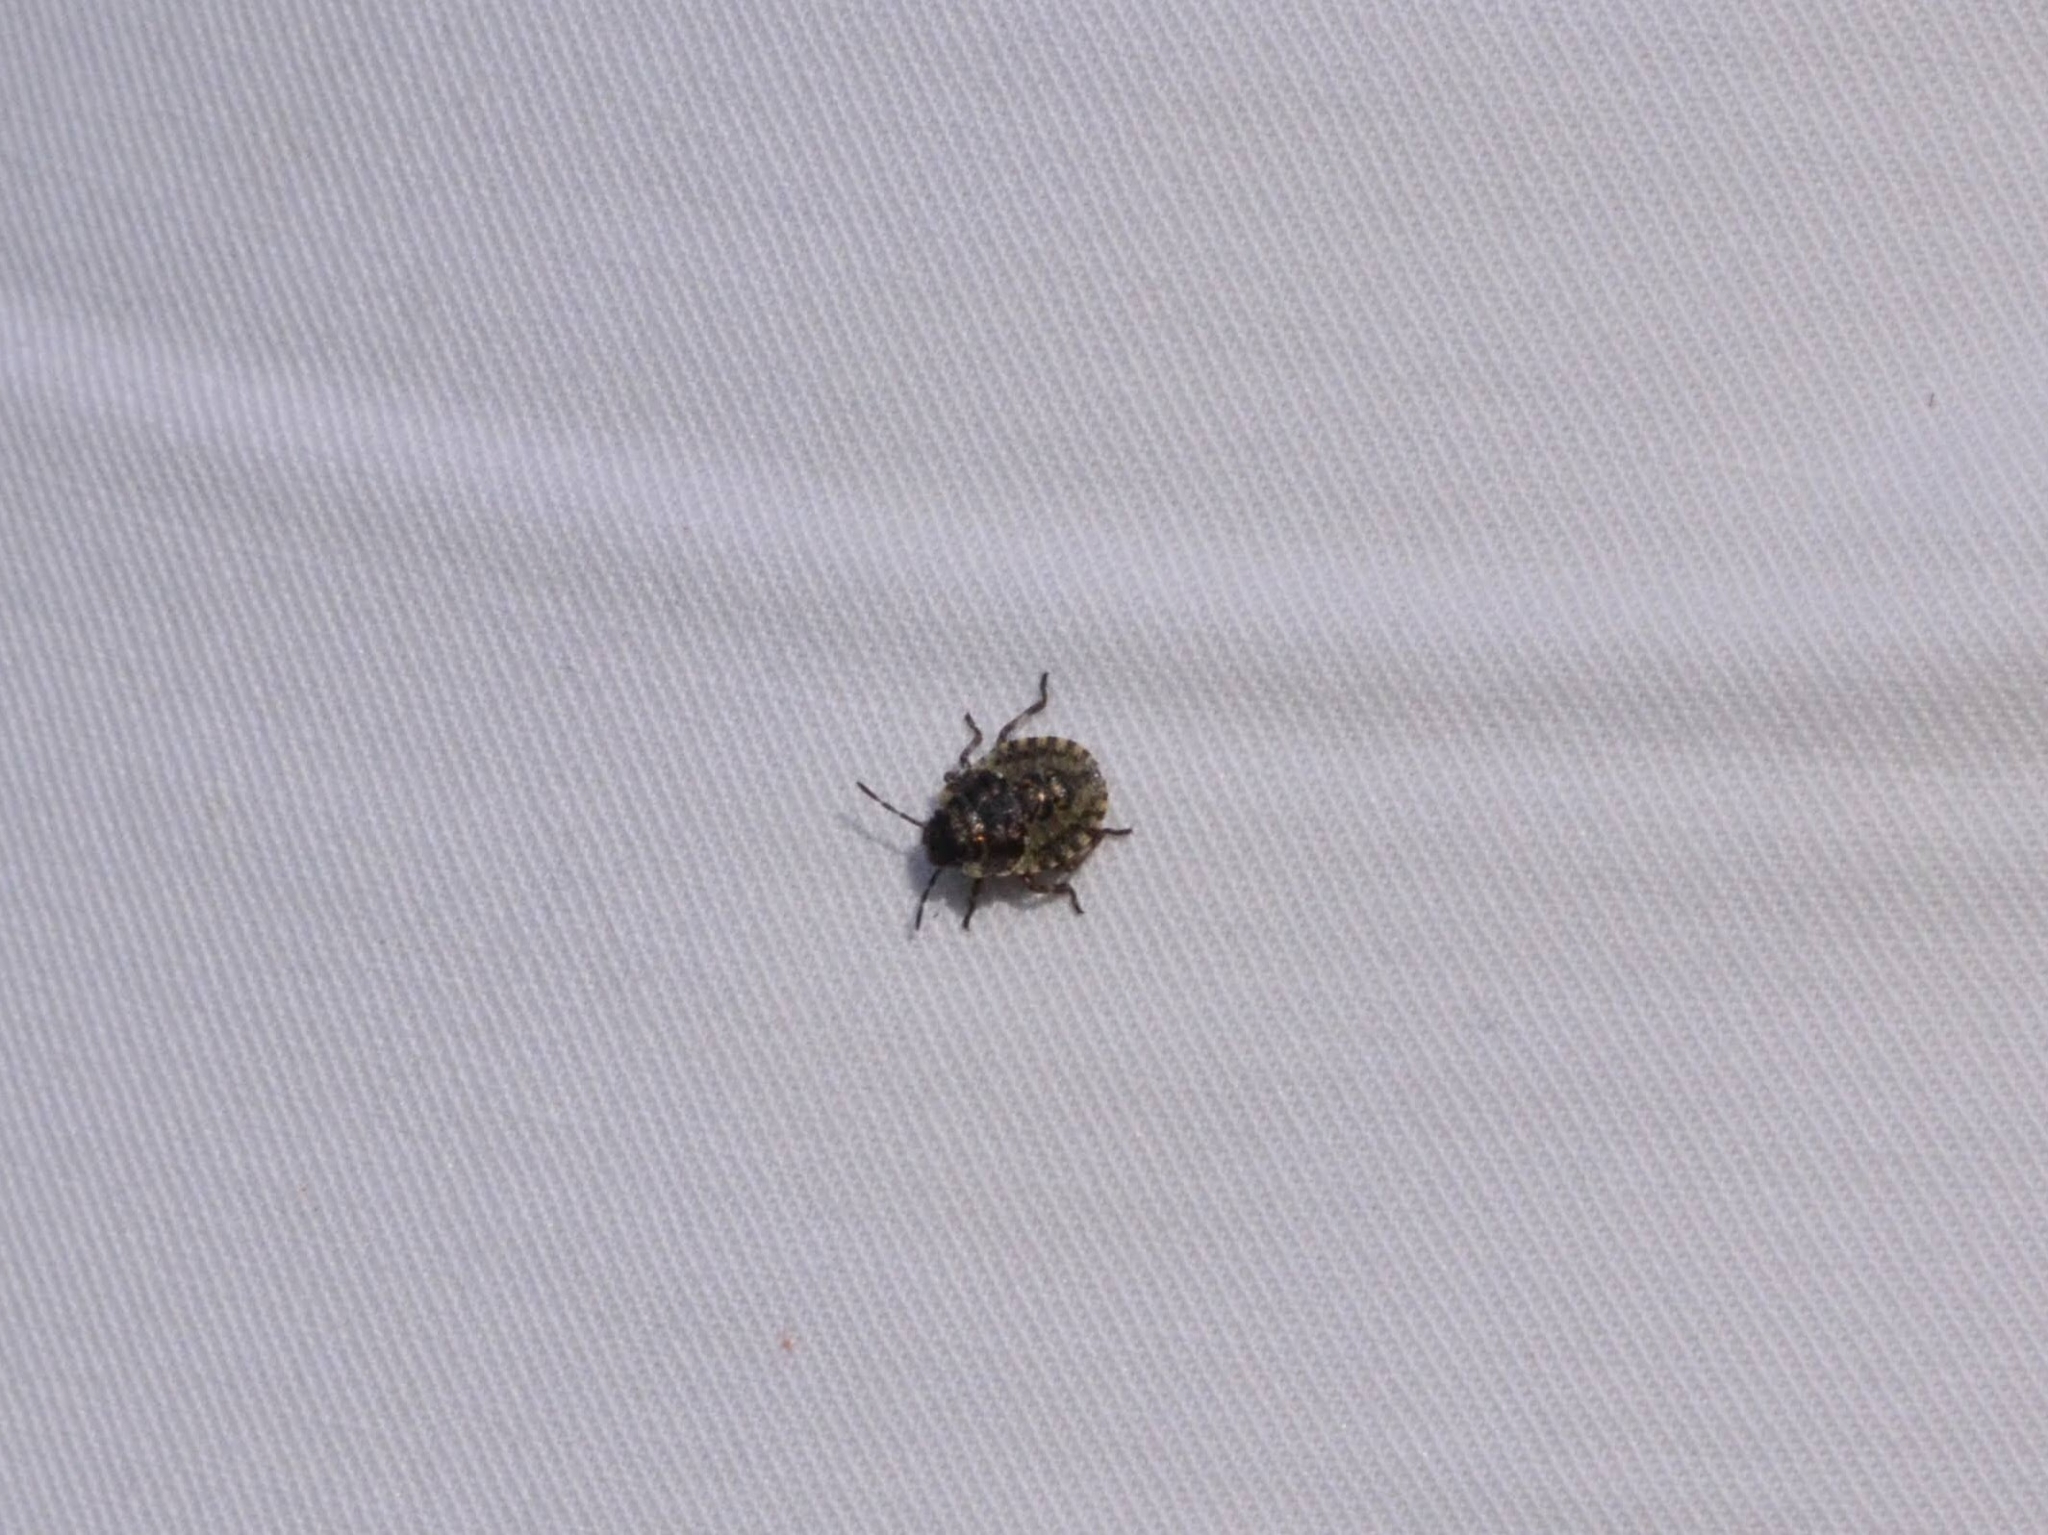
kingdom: Animalia
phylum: Arthropoda
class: Insecta
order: Hemiptera
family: Pentatomidae
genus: Pentatoma
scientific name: Pentatoma rufipes
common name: Forest bug
